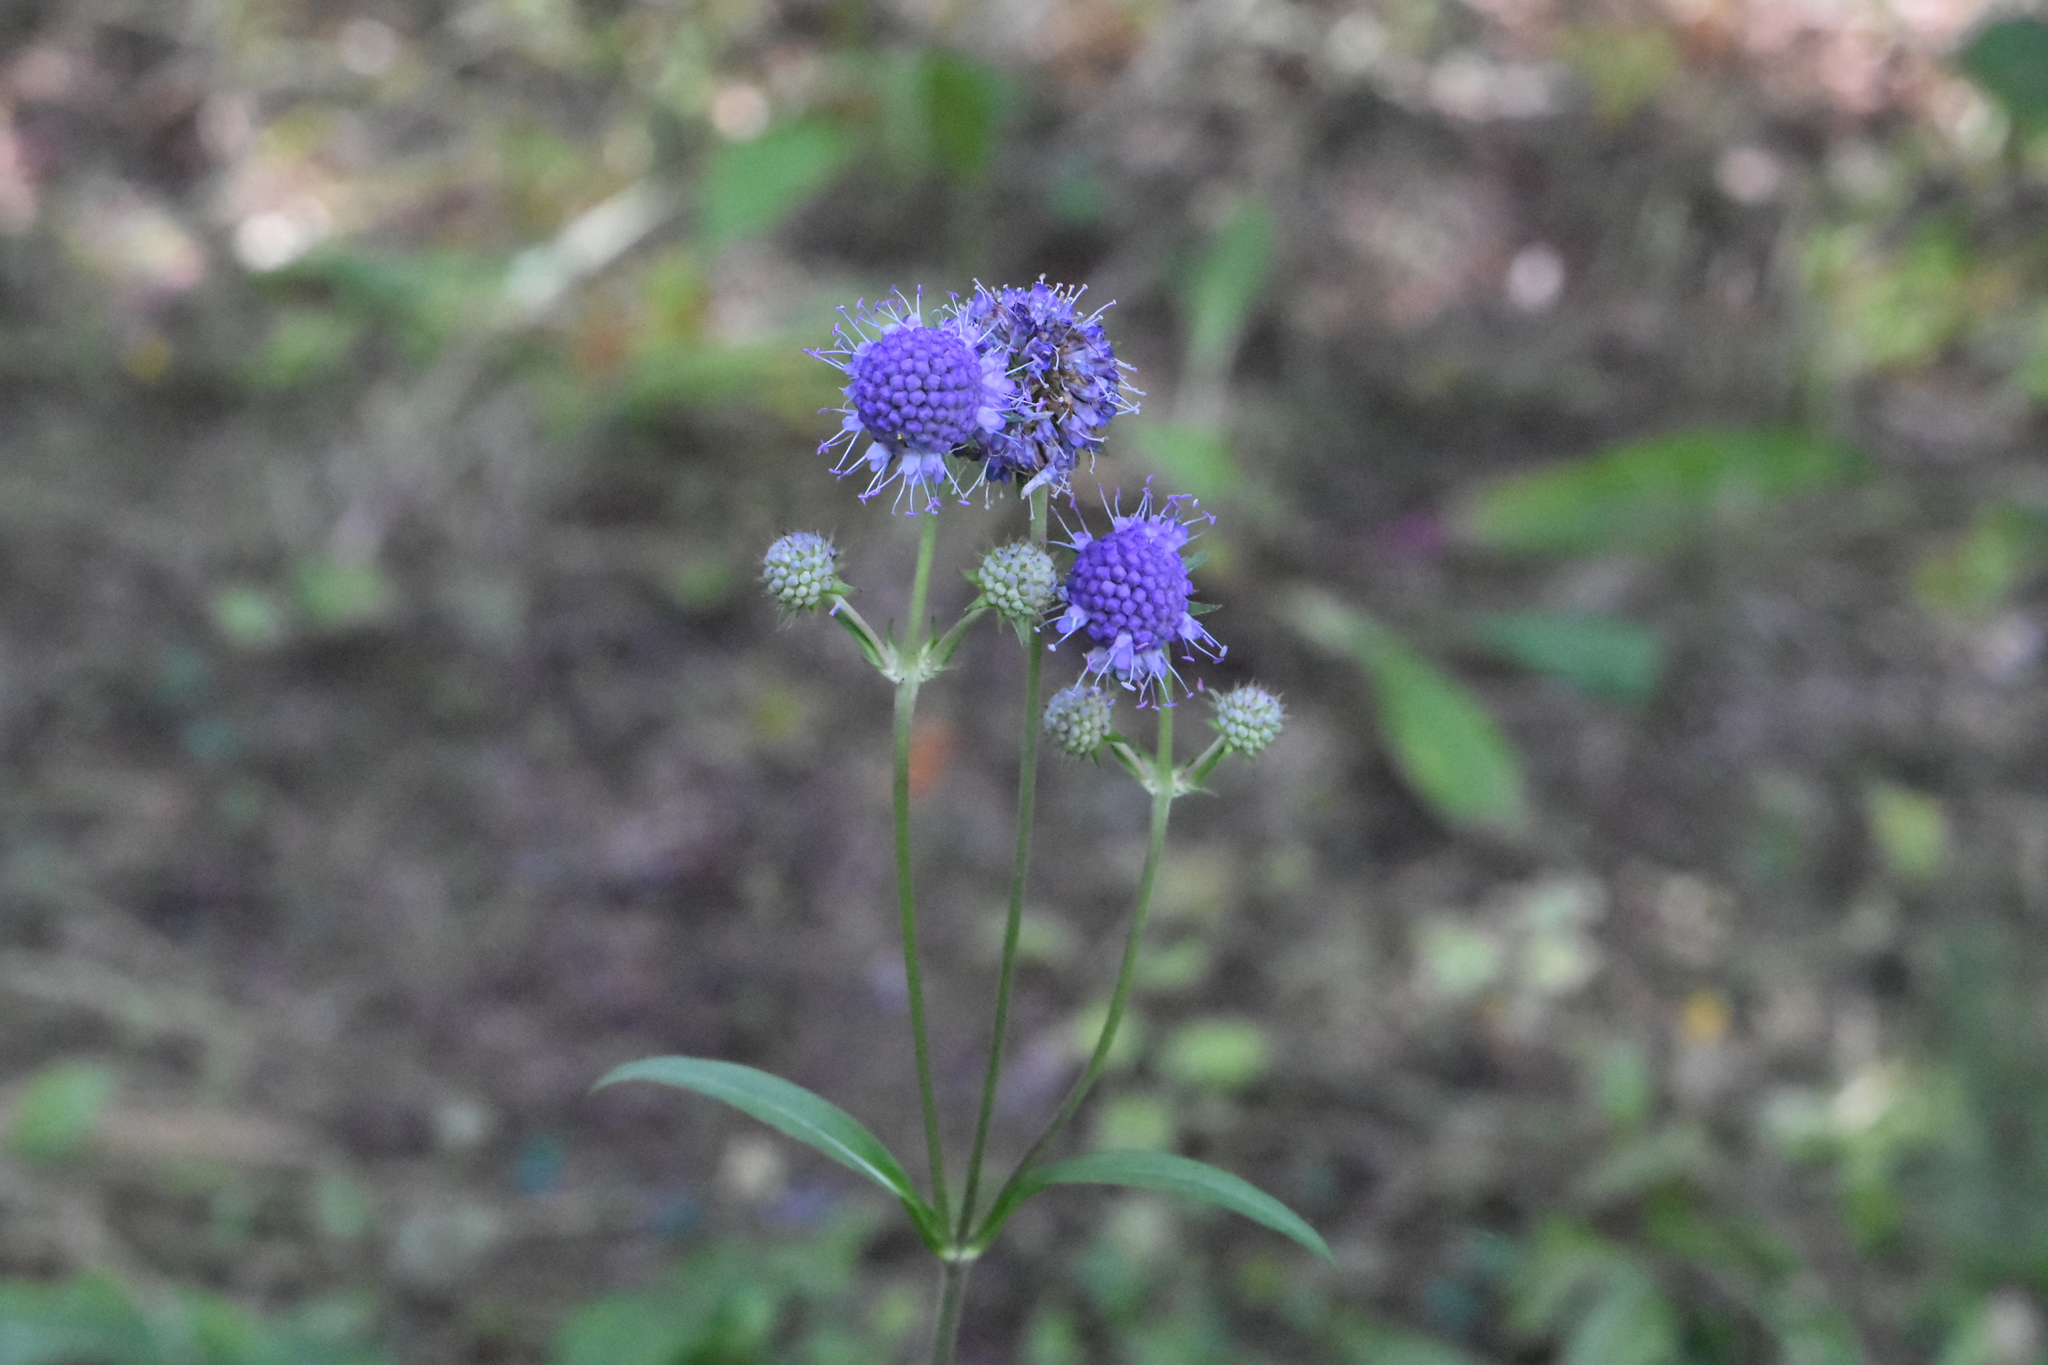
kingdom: Plantae
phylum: Tracheophyta
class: Magnoliopsida
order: Dipsacales
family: Caprifoliaceae
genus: Succisa
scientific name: Succisa pratensis
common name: Devil's-bit
